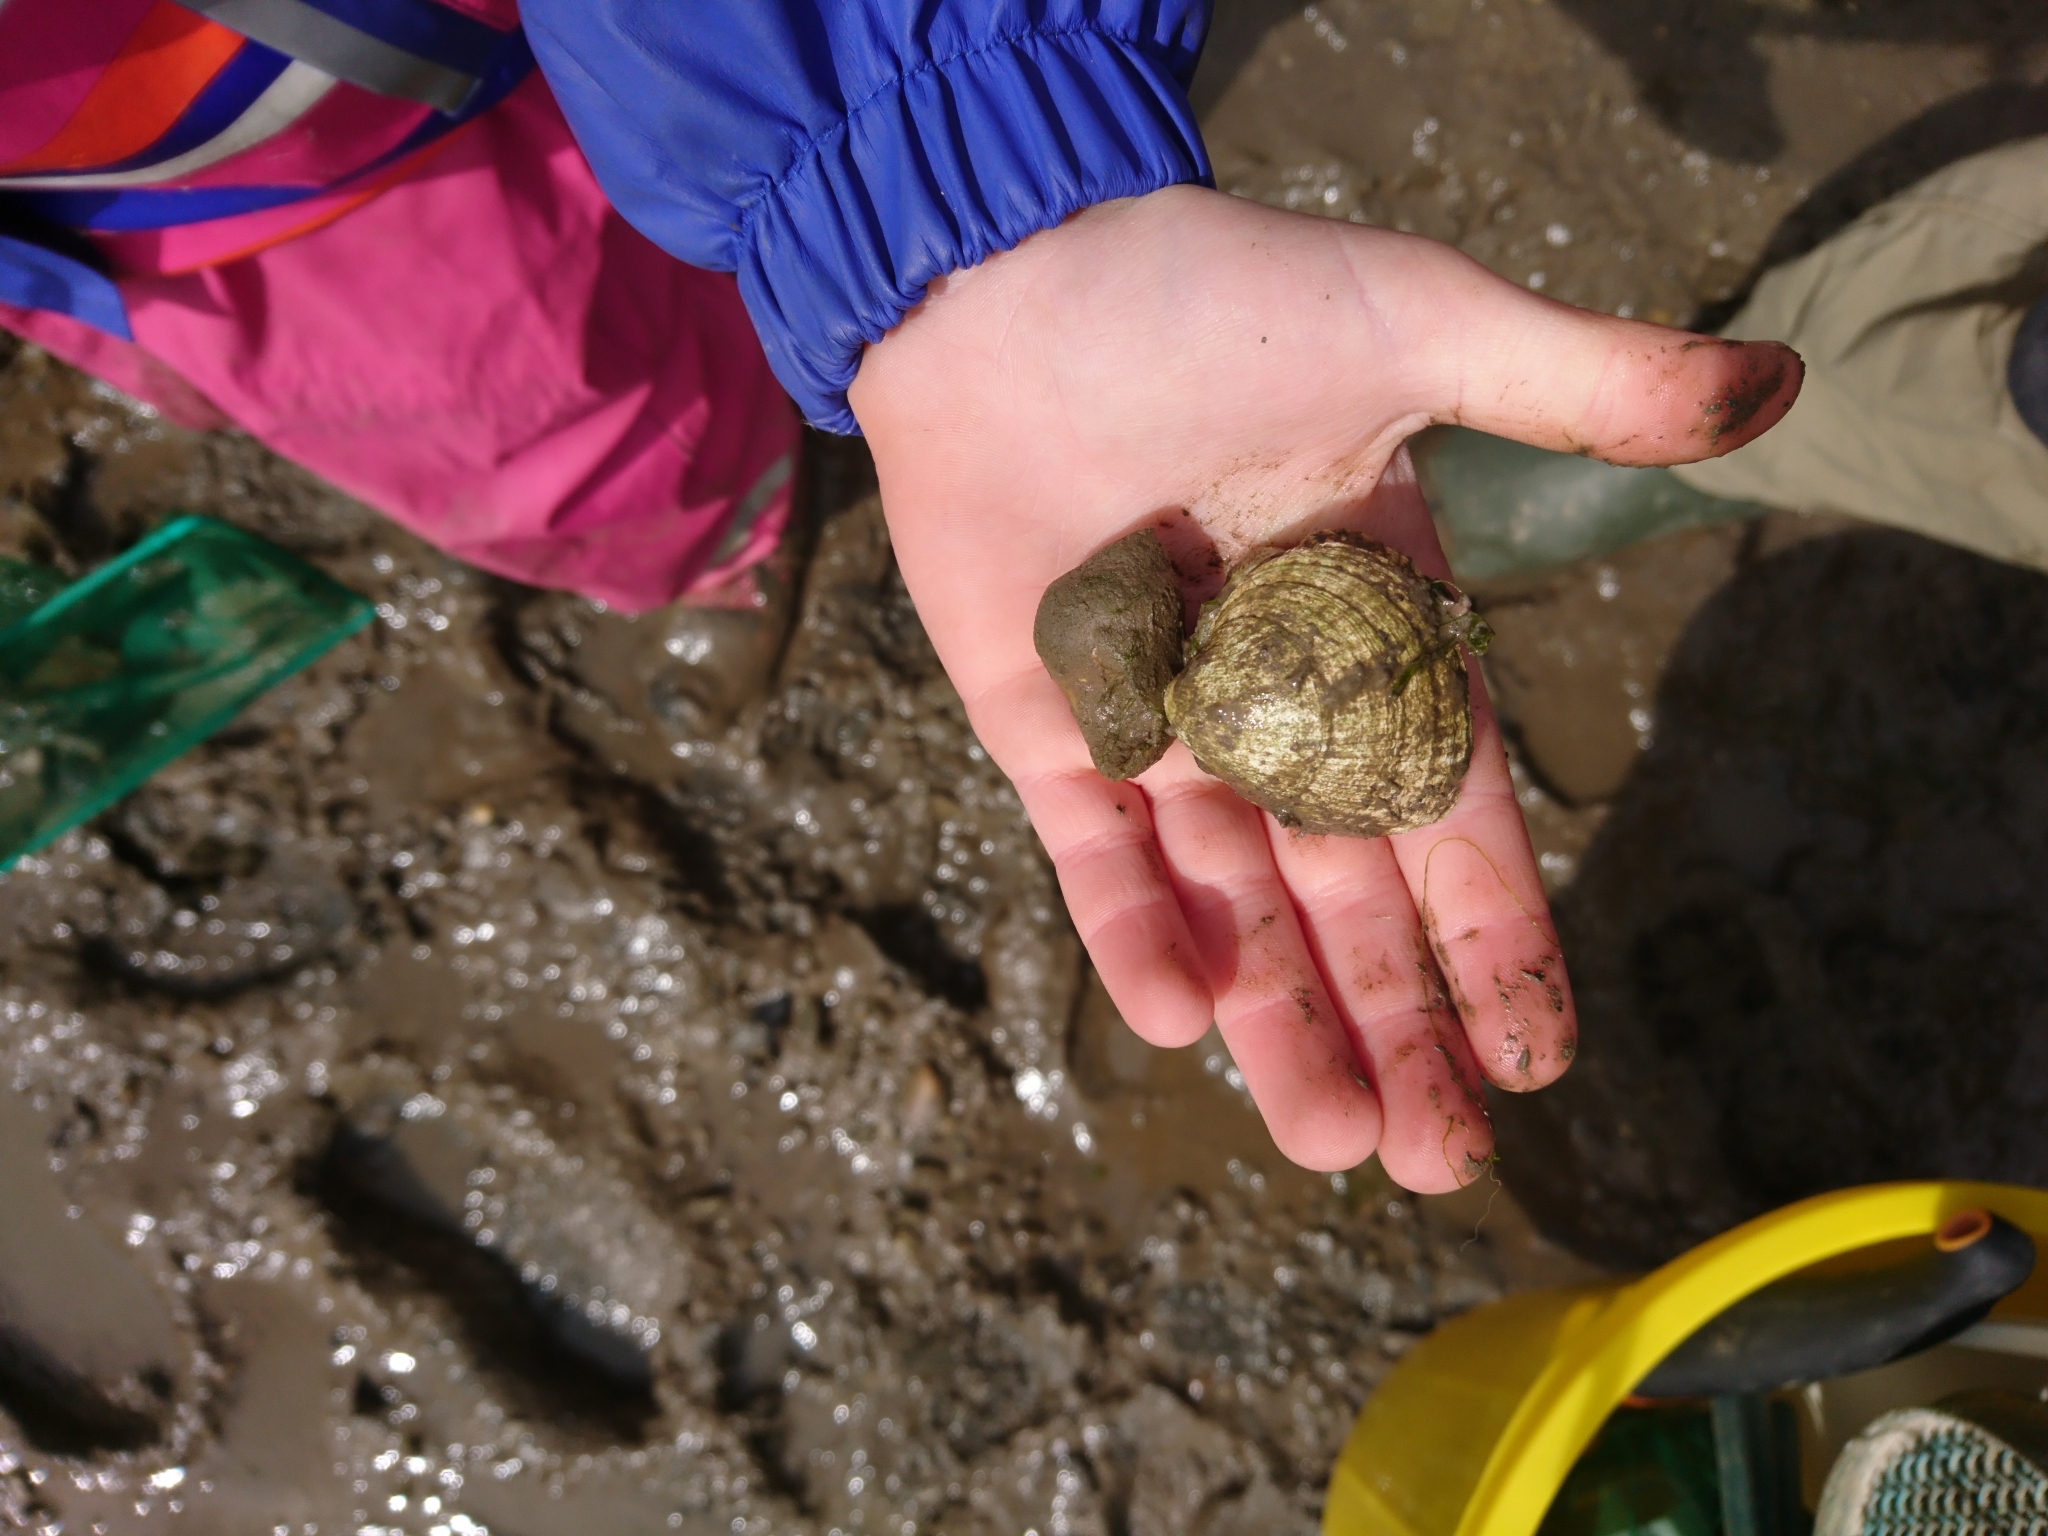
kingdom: Animalia
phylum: Mollusca
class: Bivalvia
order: Cardiida
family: Cardiidae
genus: Cerastoderma
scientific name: Cerastoderma edule
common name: Common cockle
